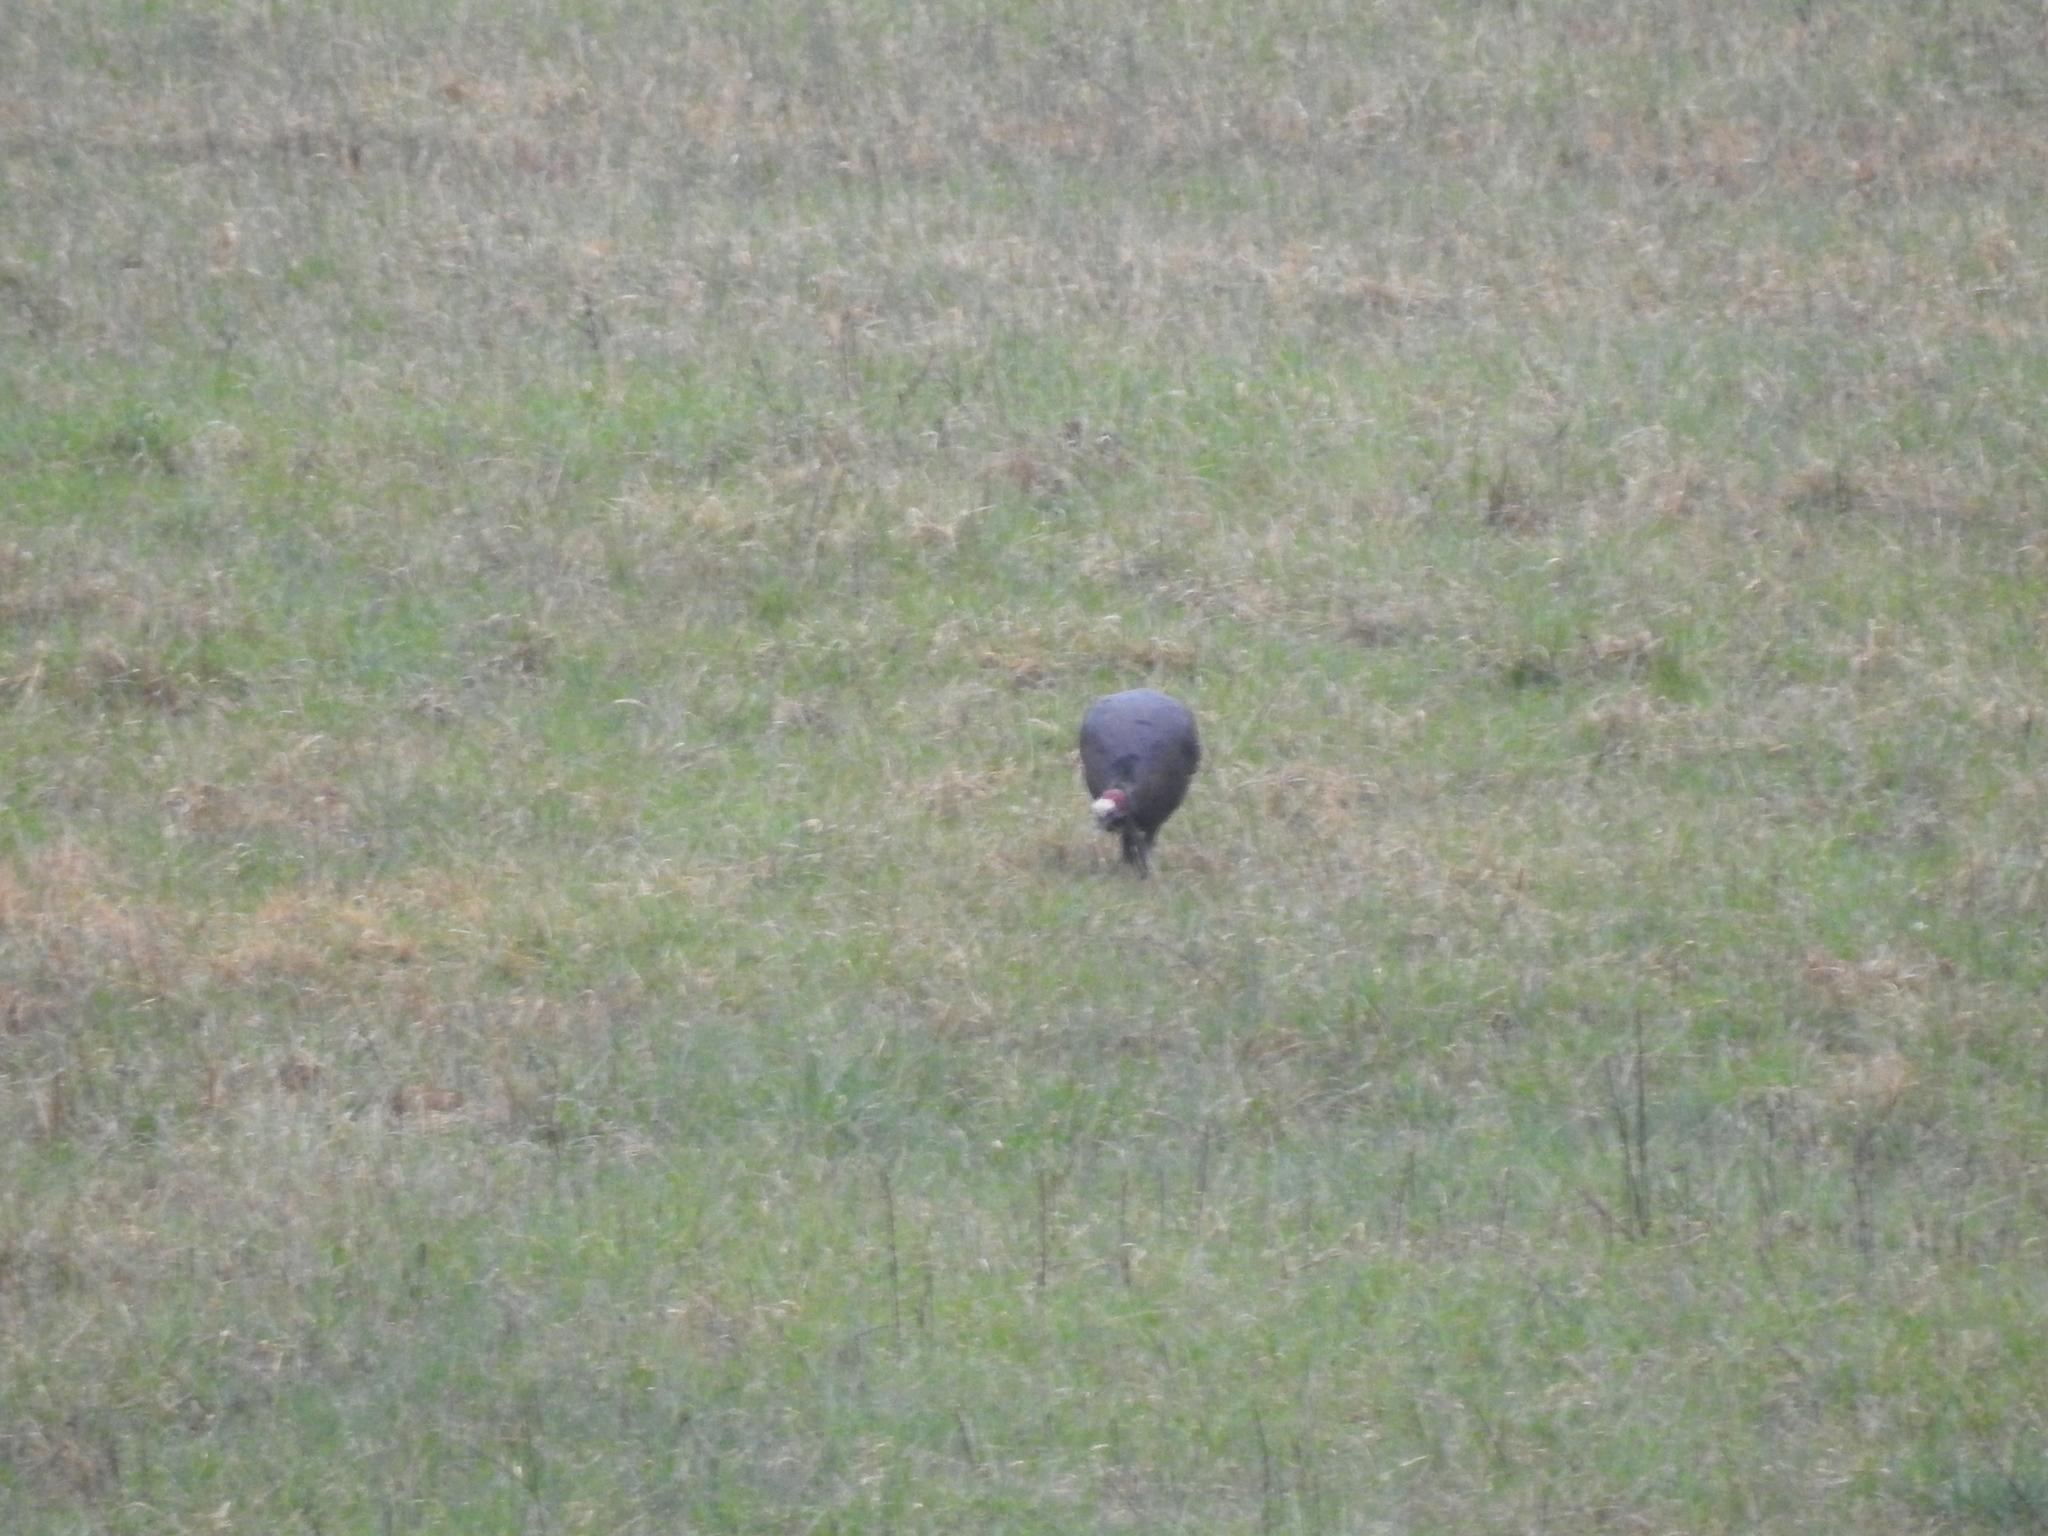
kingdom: Animalia
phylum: Chordata
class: Aves
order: Galliformes
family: Phasianidae
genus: Meleagris
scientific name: Meleagris gallopavo
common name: Wild turkey
